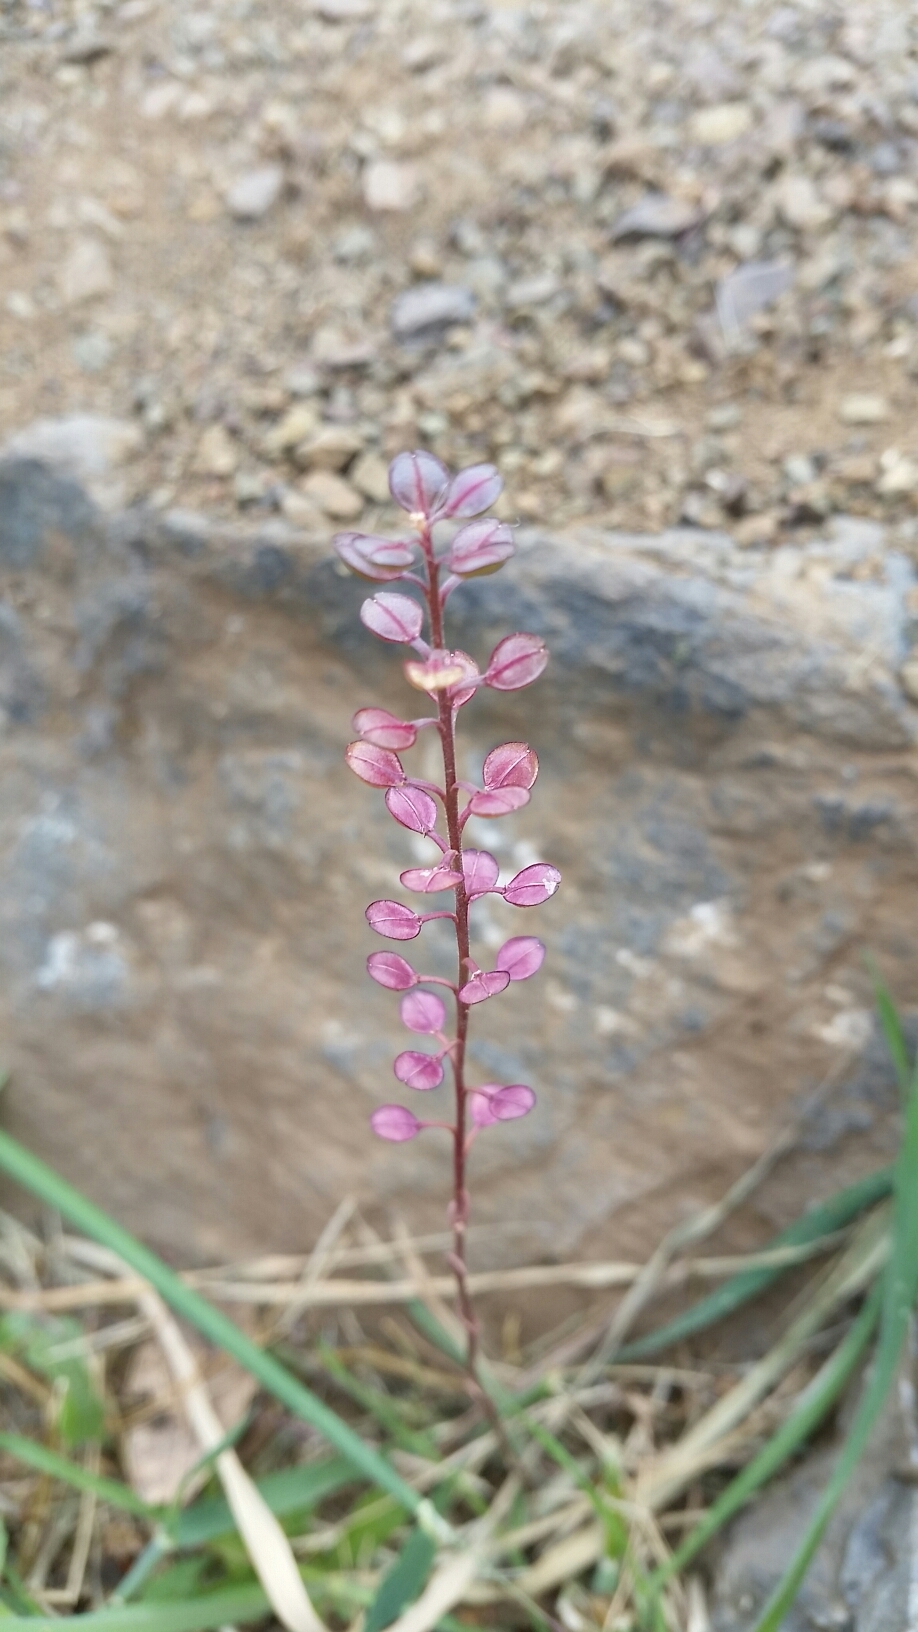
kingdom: Plantae
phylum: Tracheophyta
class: Magnoliopsida
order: Brassicales
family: Brassicaceae
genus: Lepidium
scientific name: Lepidium nitidum
